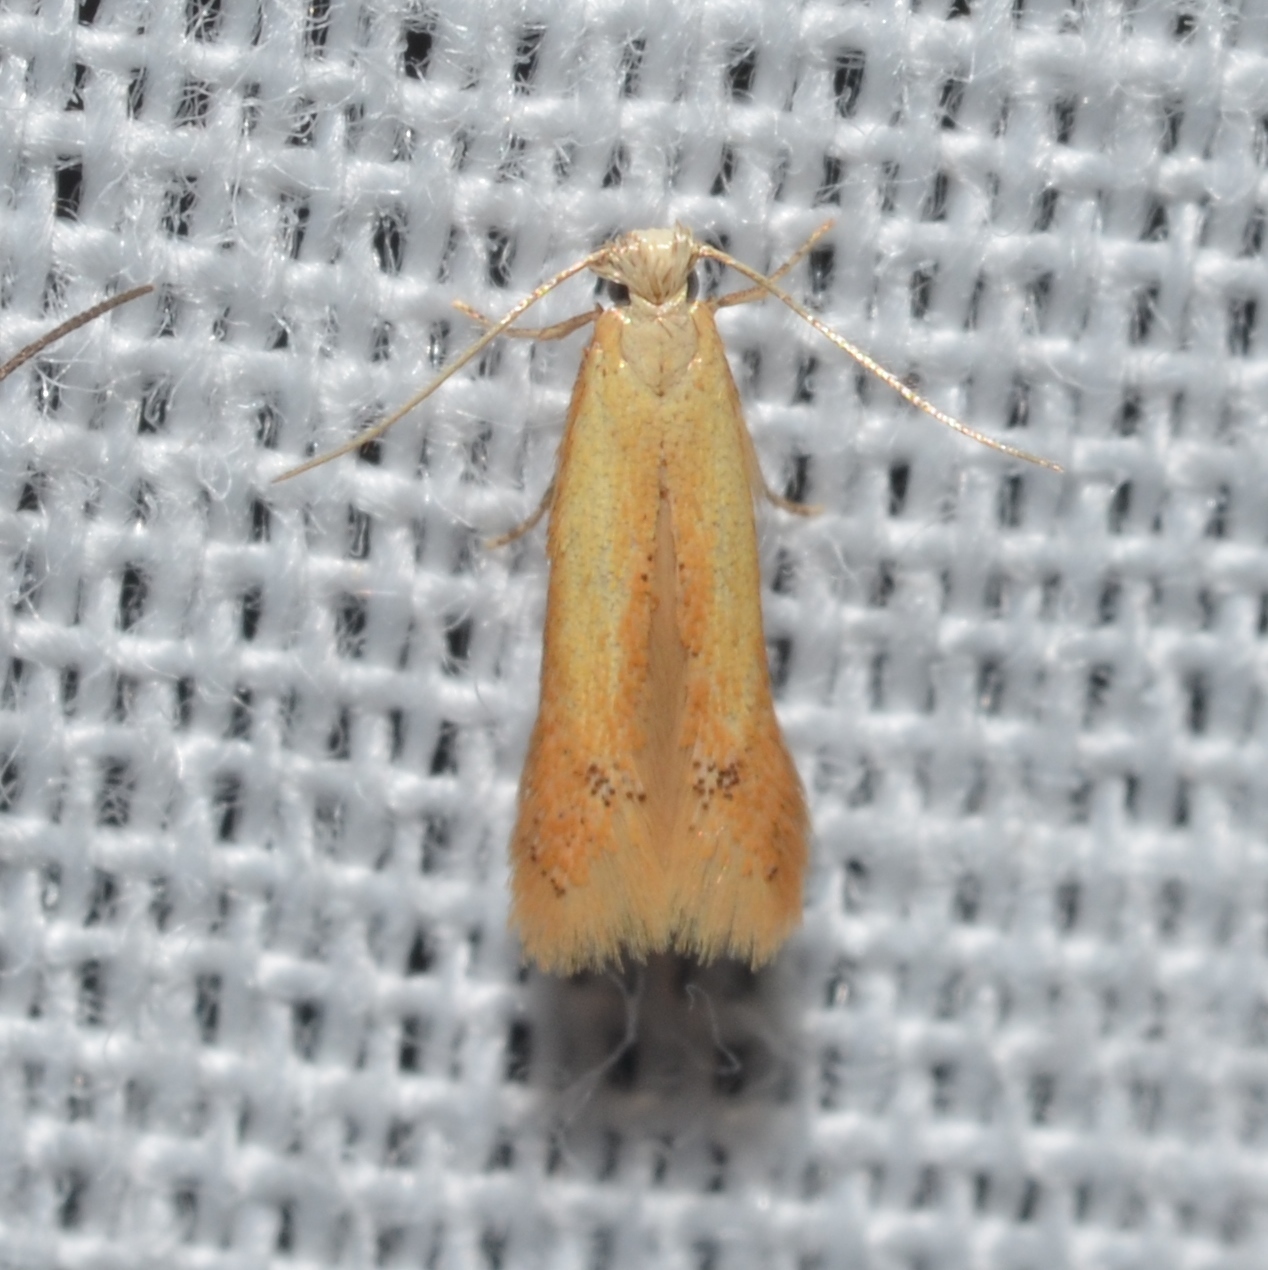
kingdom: Animalia
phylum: Arthropoda
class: Insecta
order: Lepidoptera
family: Tischeriidae
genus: Coptotriche
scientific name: Coptotriche citrinipennella
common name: The golden sweeper
